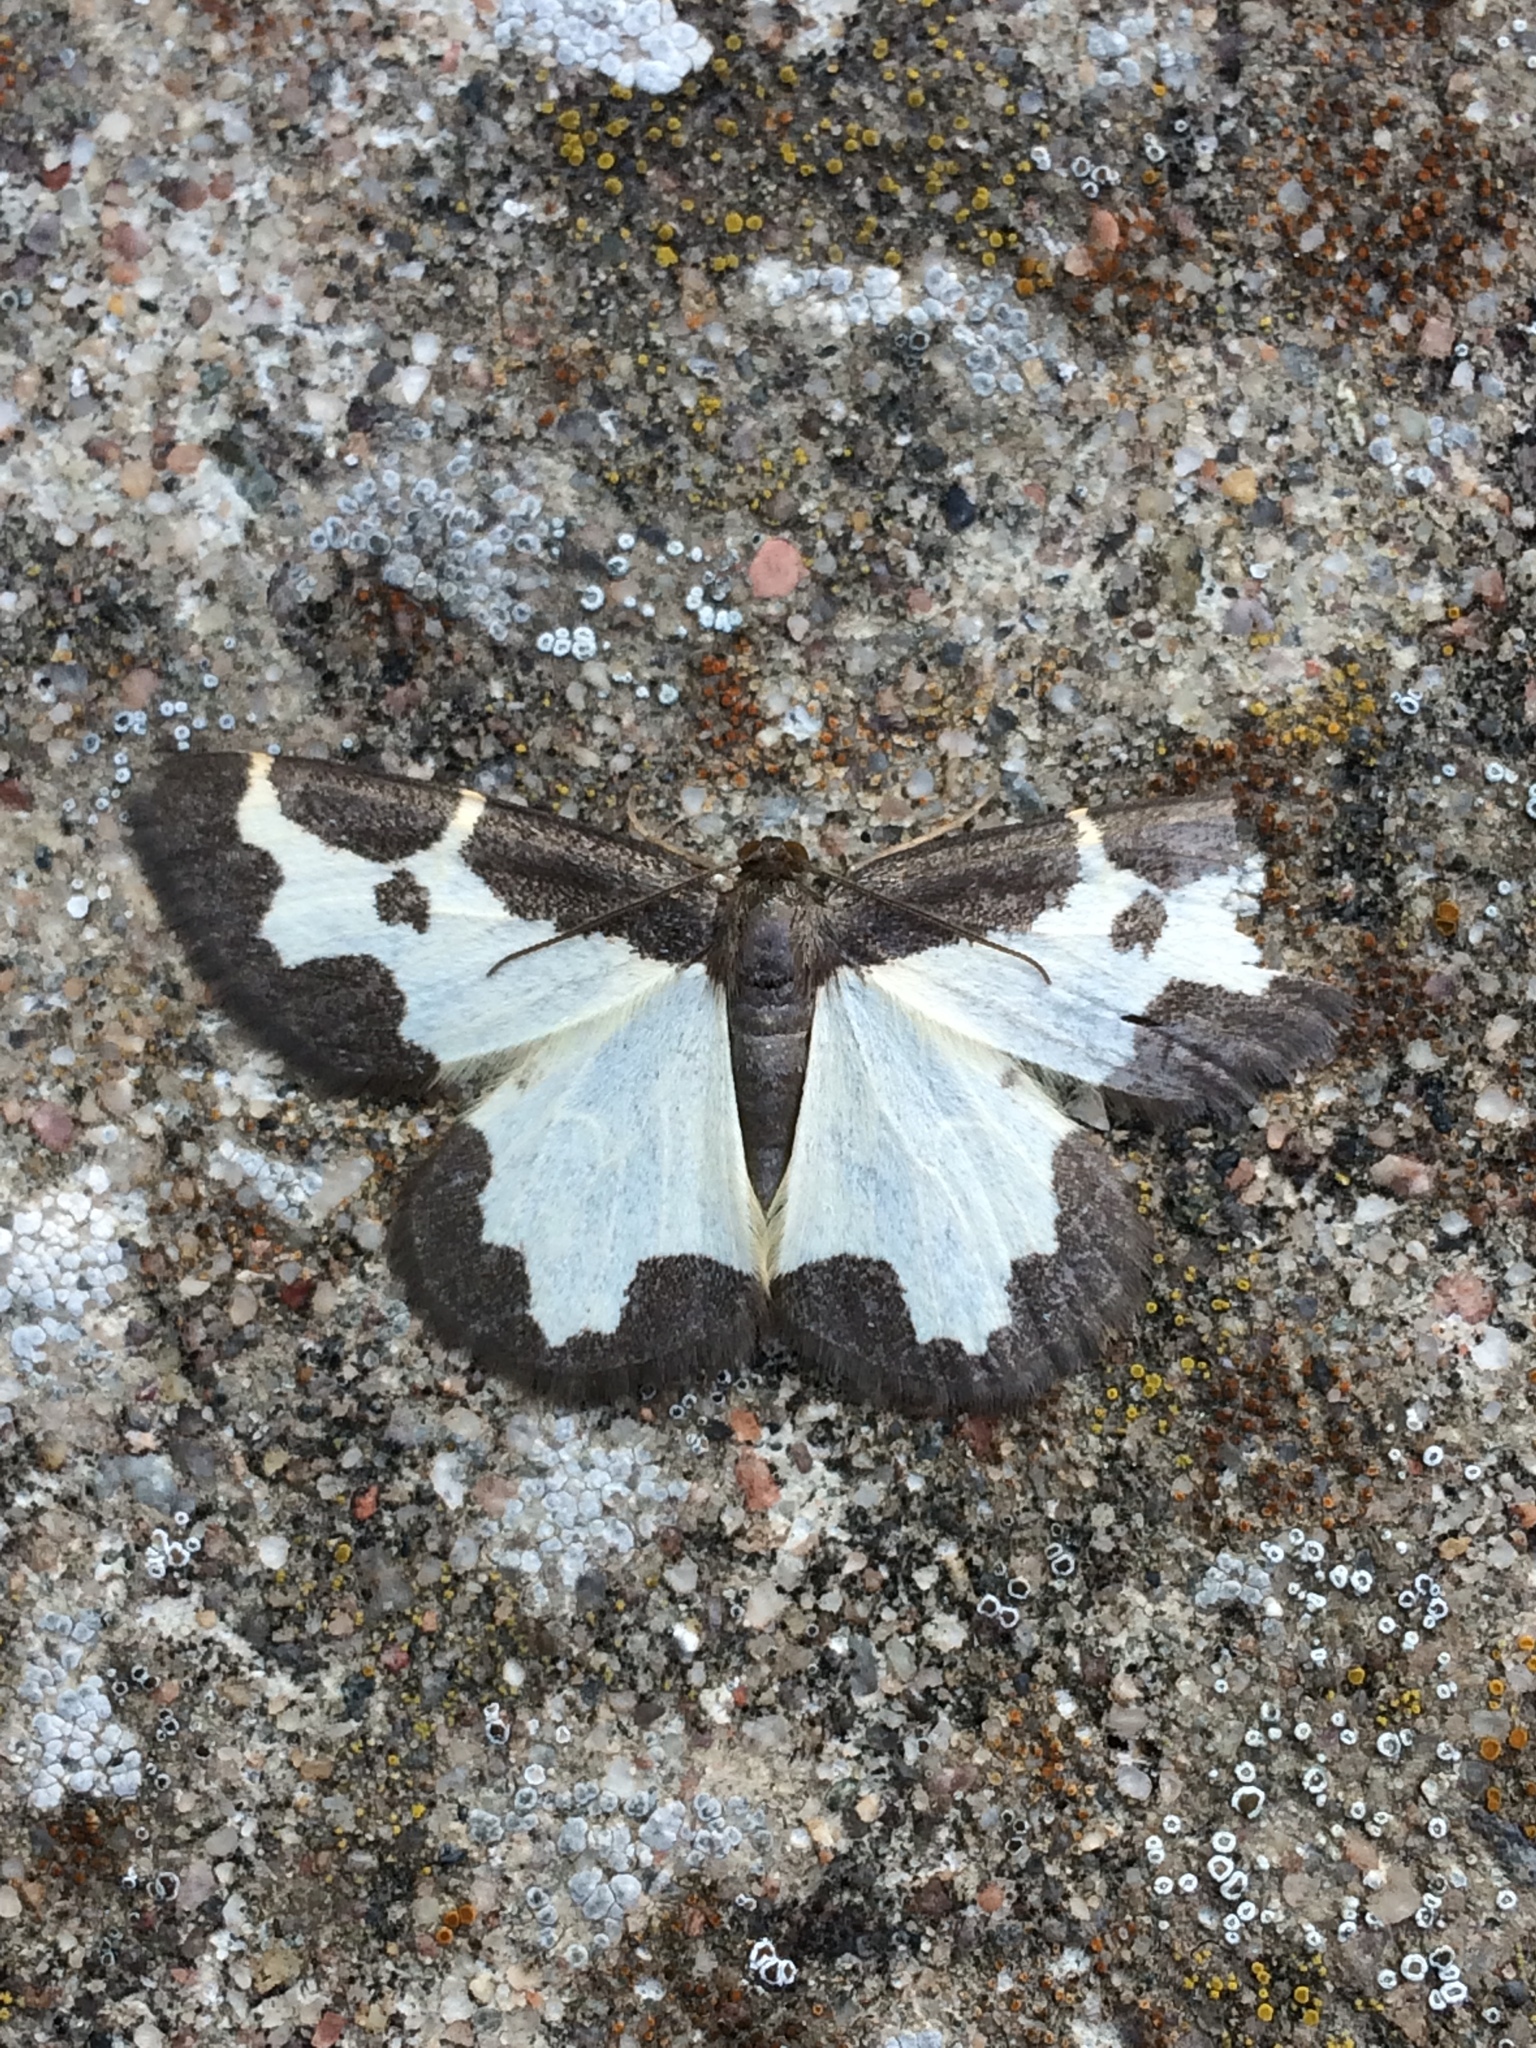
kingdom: Animalia
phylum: Arthropoda
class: Insecta
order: Lepidoptera
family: Geometridae
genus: Lomaspilis
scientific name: Lomaspilis marginata
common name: Clouded border
